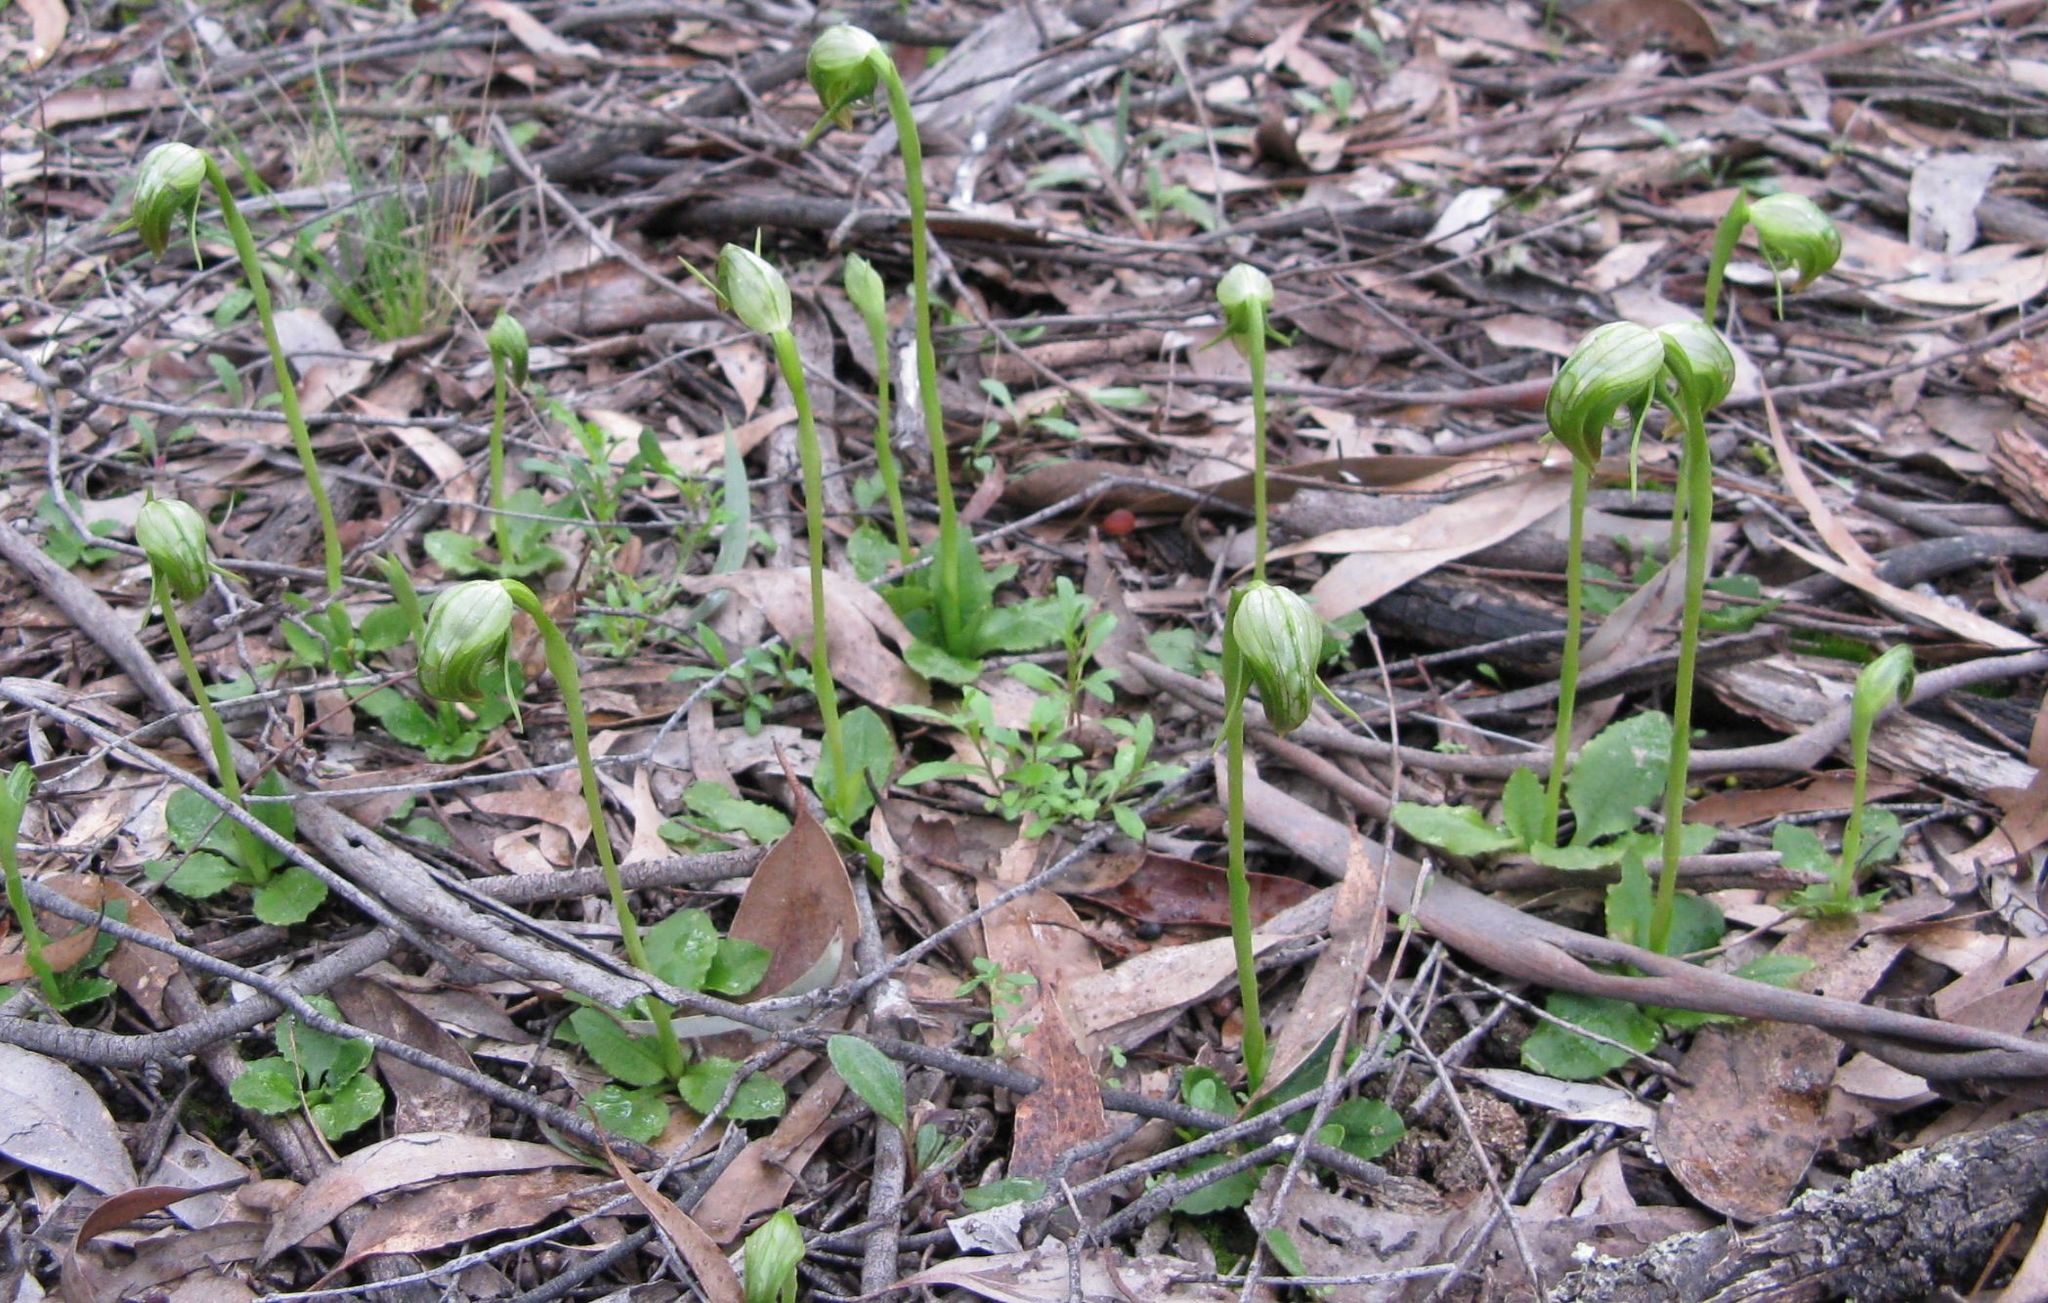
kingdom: Plantae
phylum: Tracheophyta
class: Liliopsida
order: Asparagales
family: Orchidaceae
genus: Pterostylis
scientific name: Pterostylis nutans
